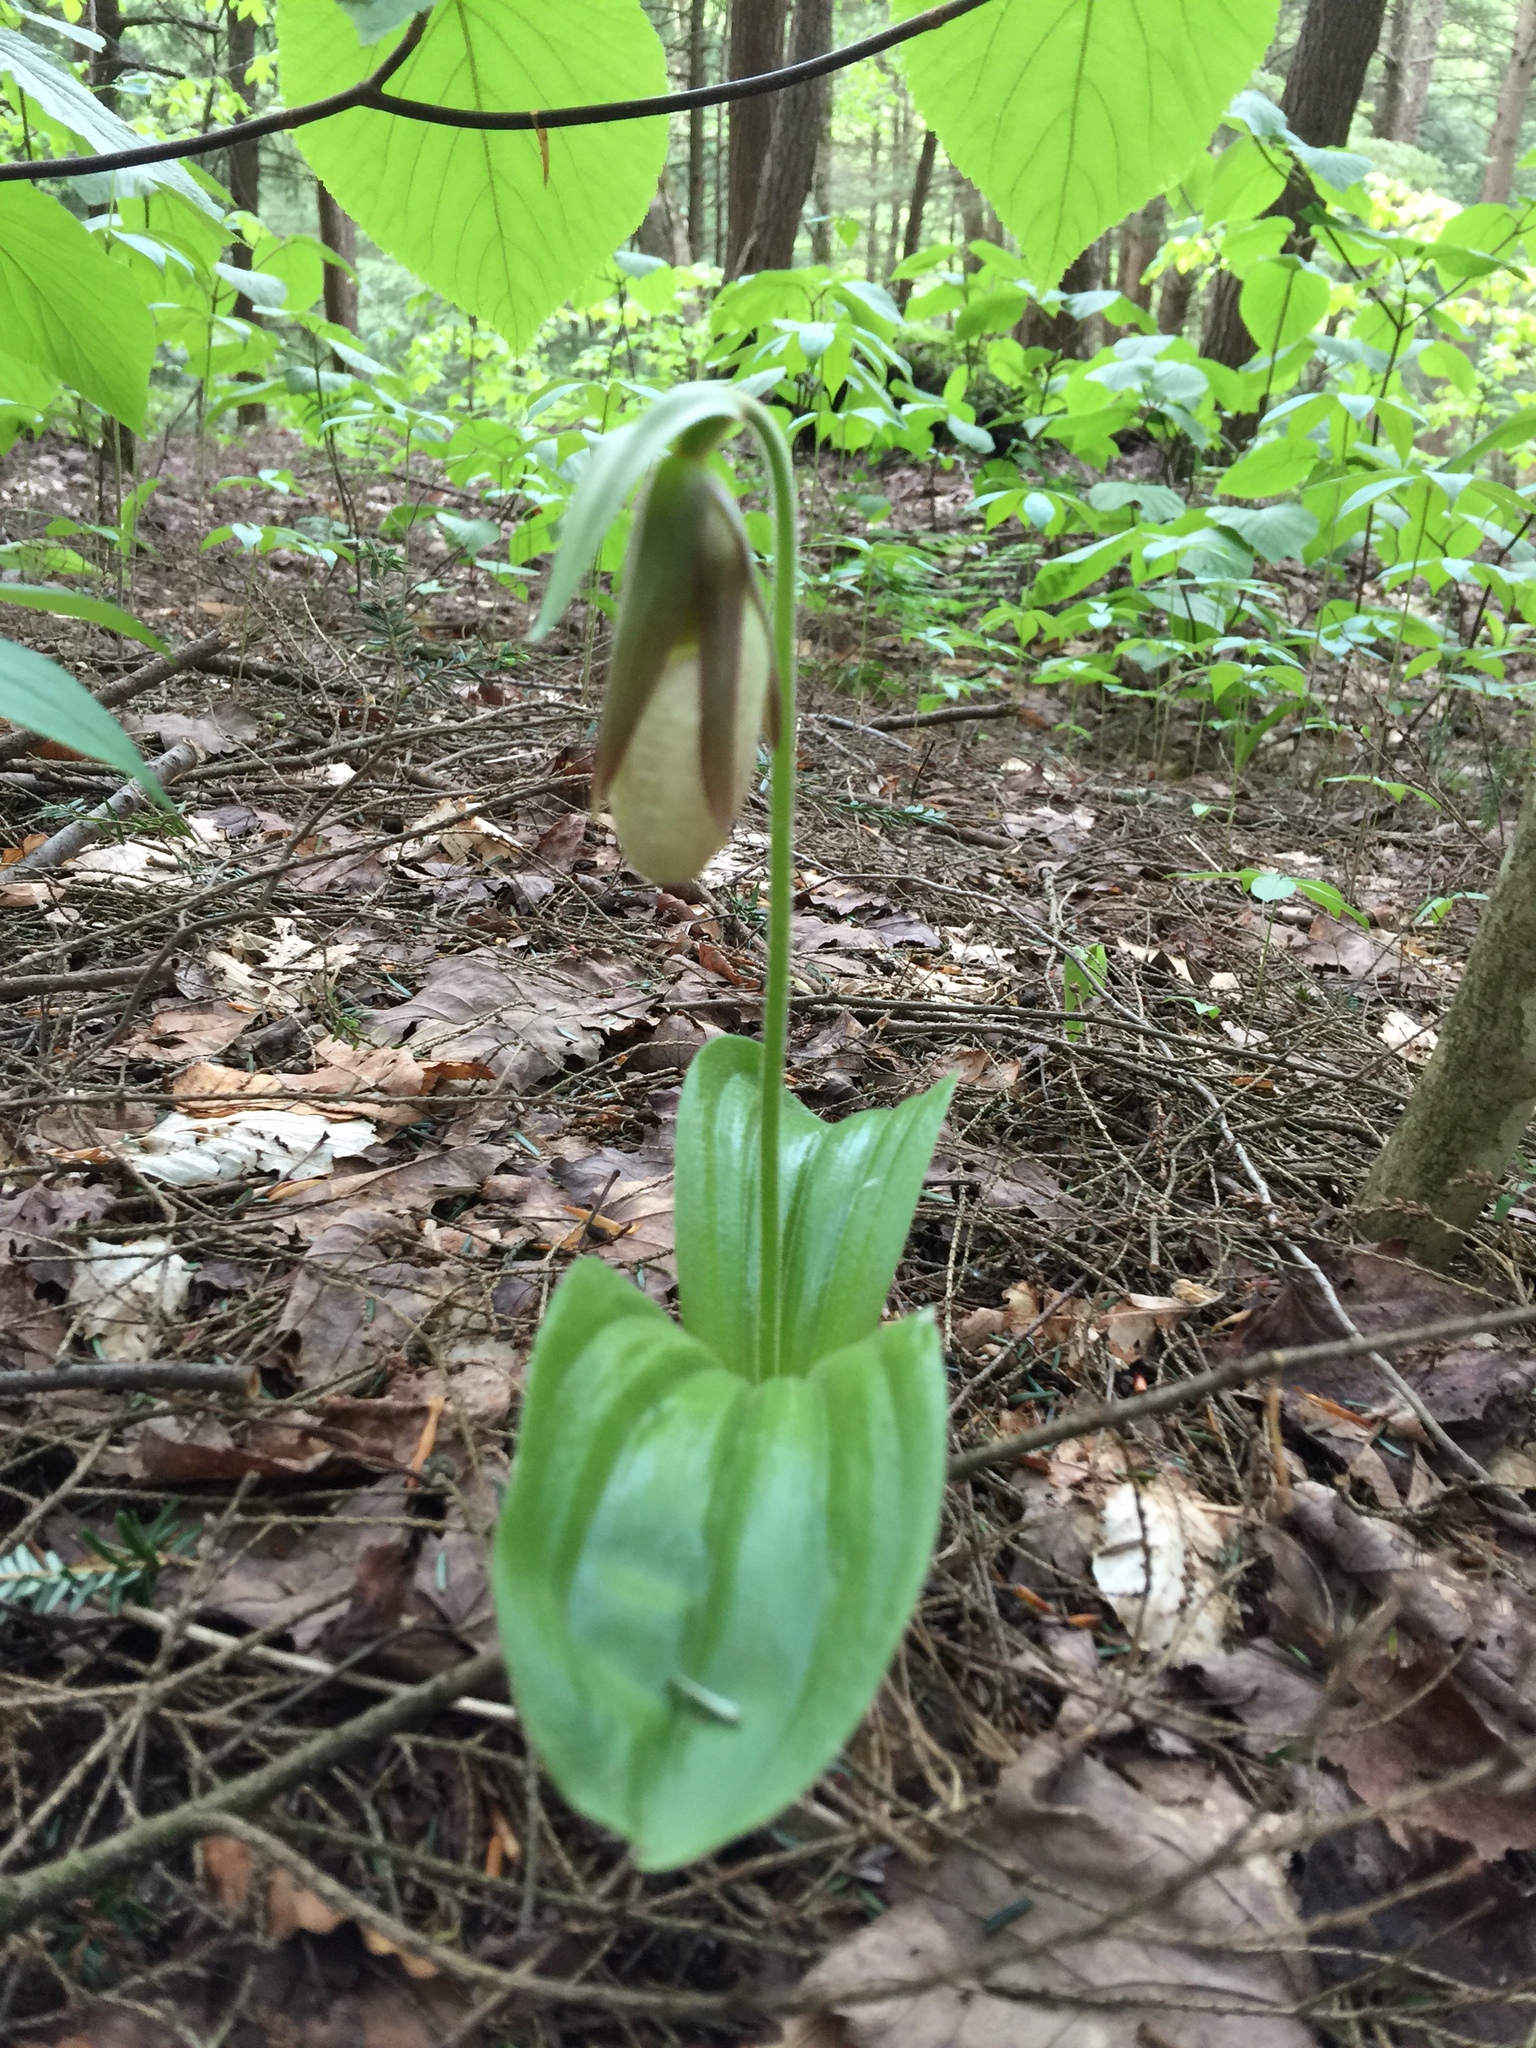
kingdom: Plantae
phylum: Tracheophyta
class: Liliopsida
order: Asparagales
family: Orchidaceae
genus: Cypripedium
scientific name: Cypripedium acaule
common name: Pink lady's-slipper
